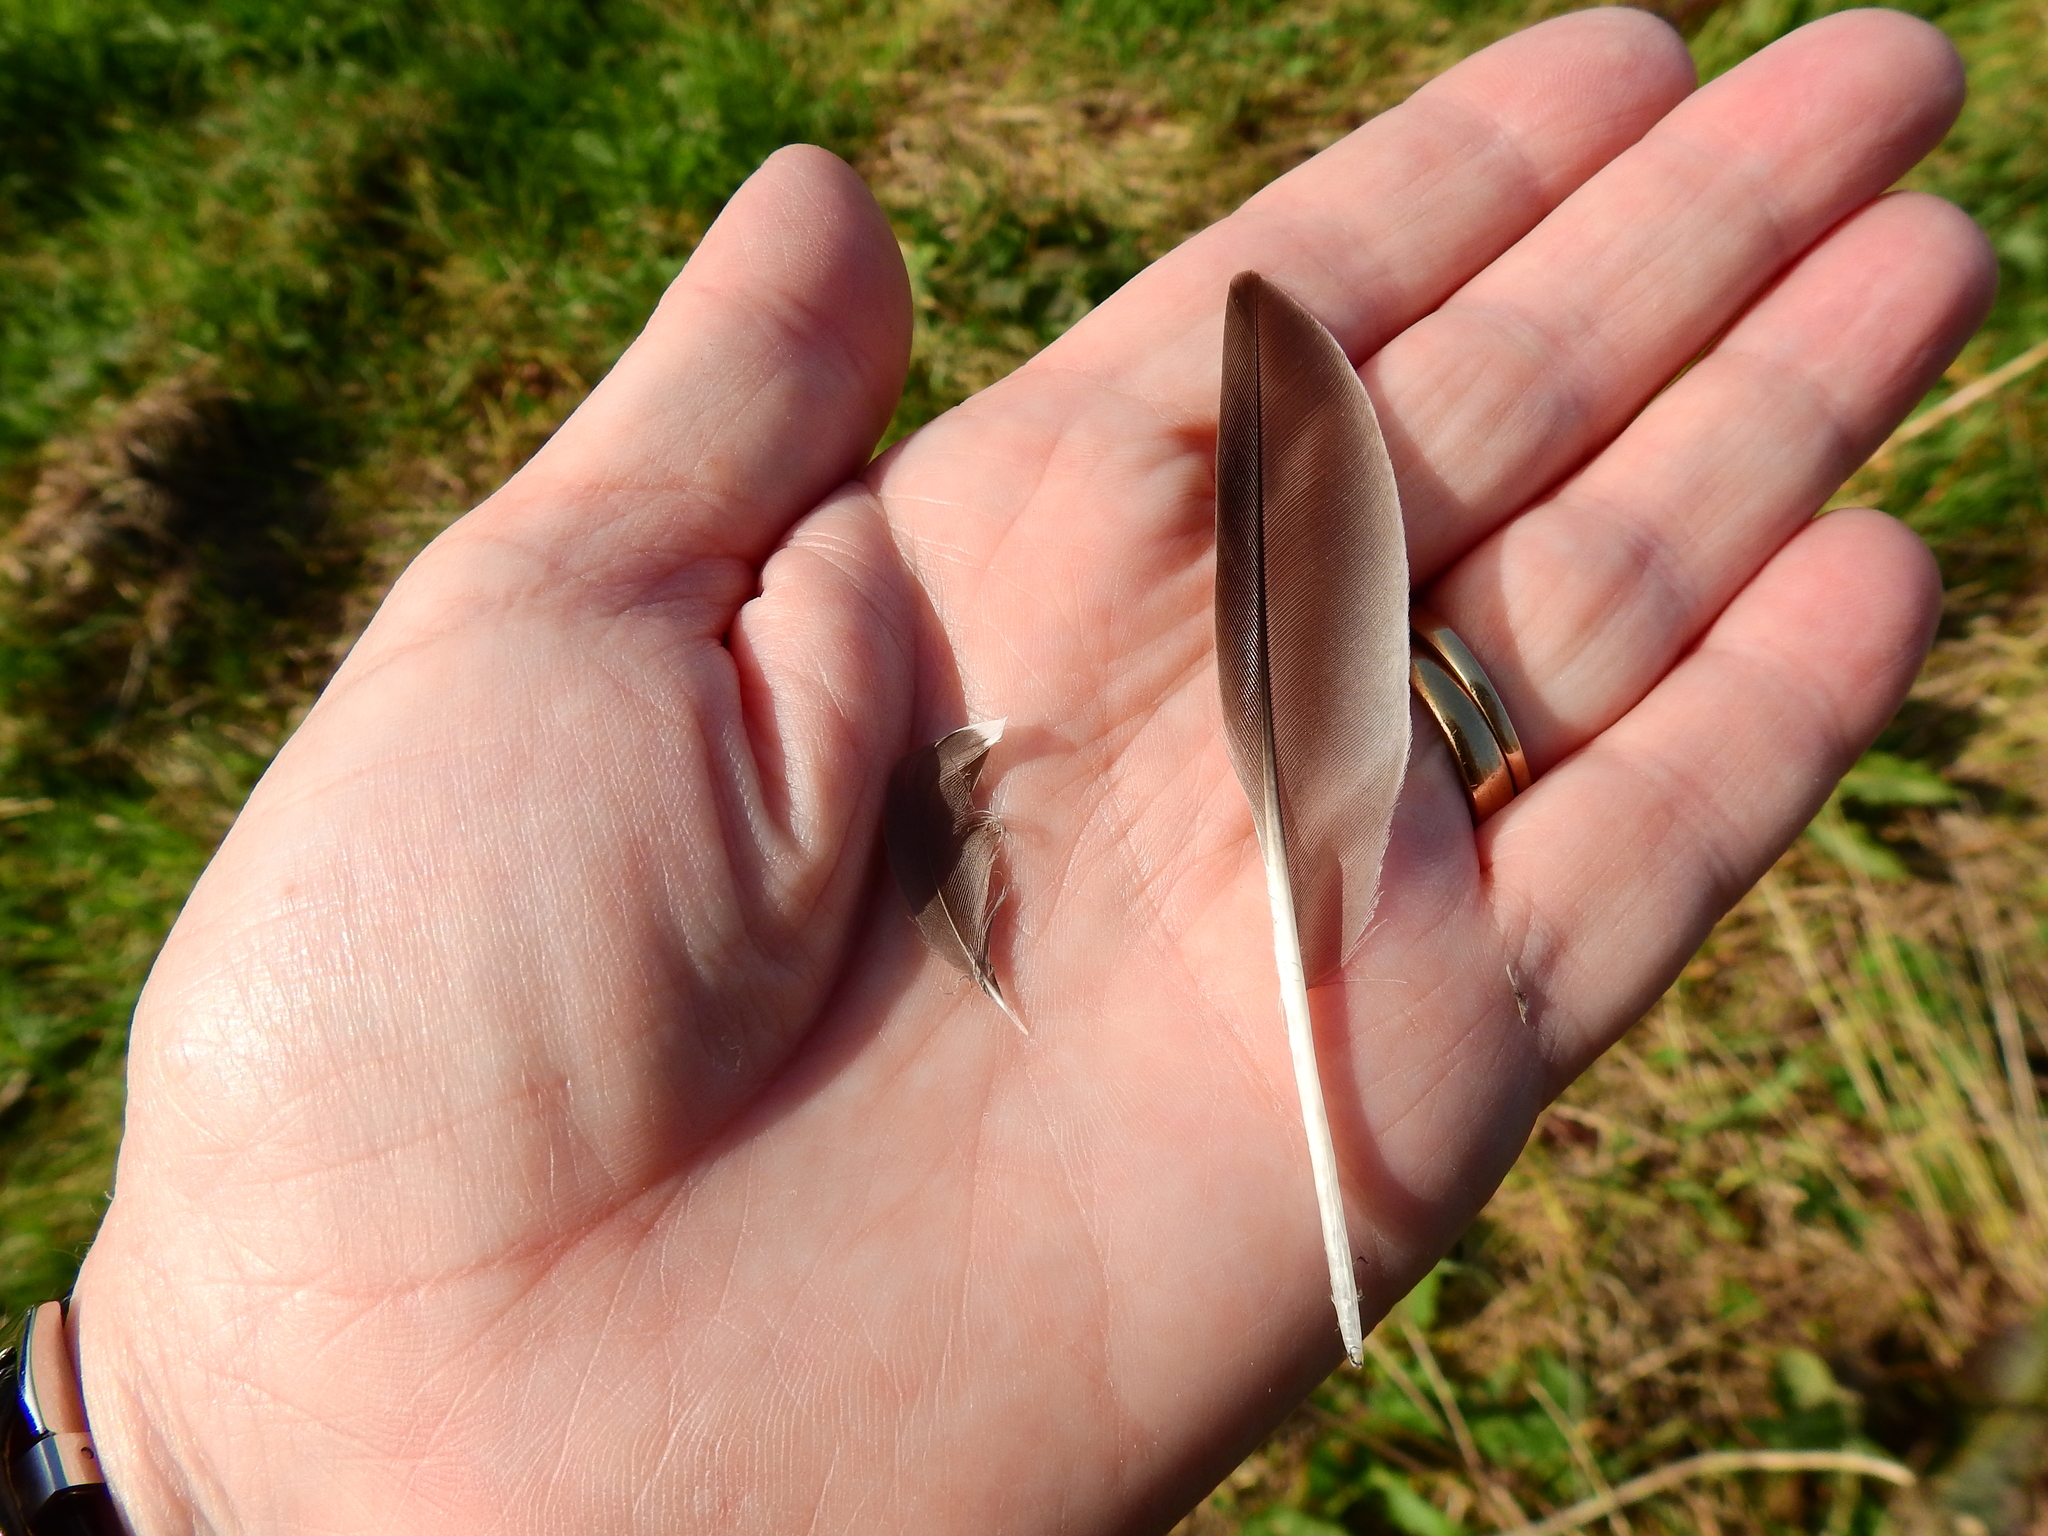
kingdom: Animalia
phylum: Chordata
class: Aves
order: Charadriiformes
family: Scolopacidae
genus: Gallinago
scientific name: Gallinago gallinago
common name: Common snipe
